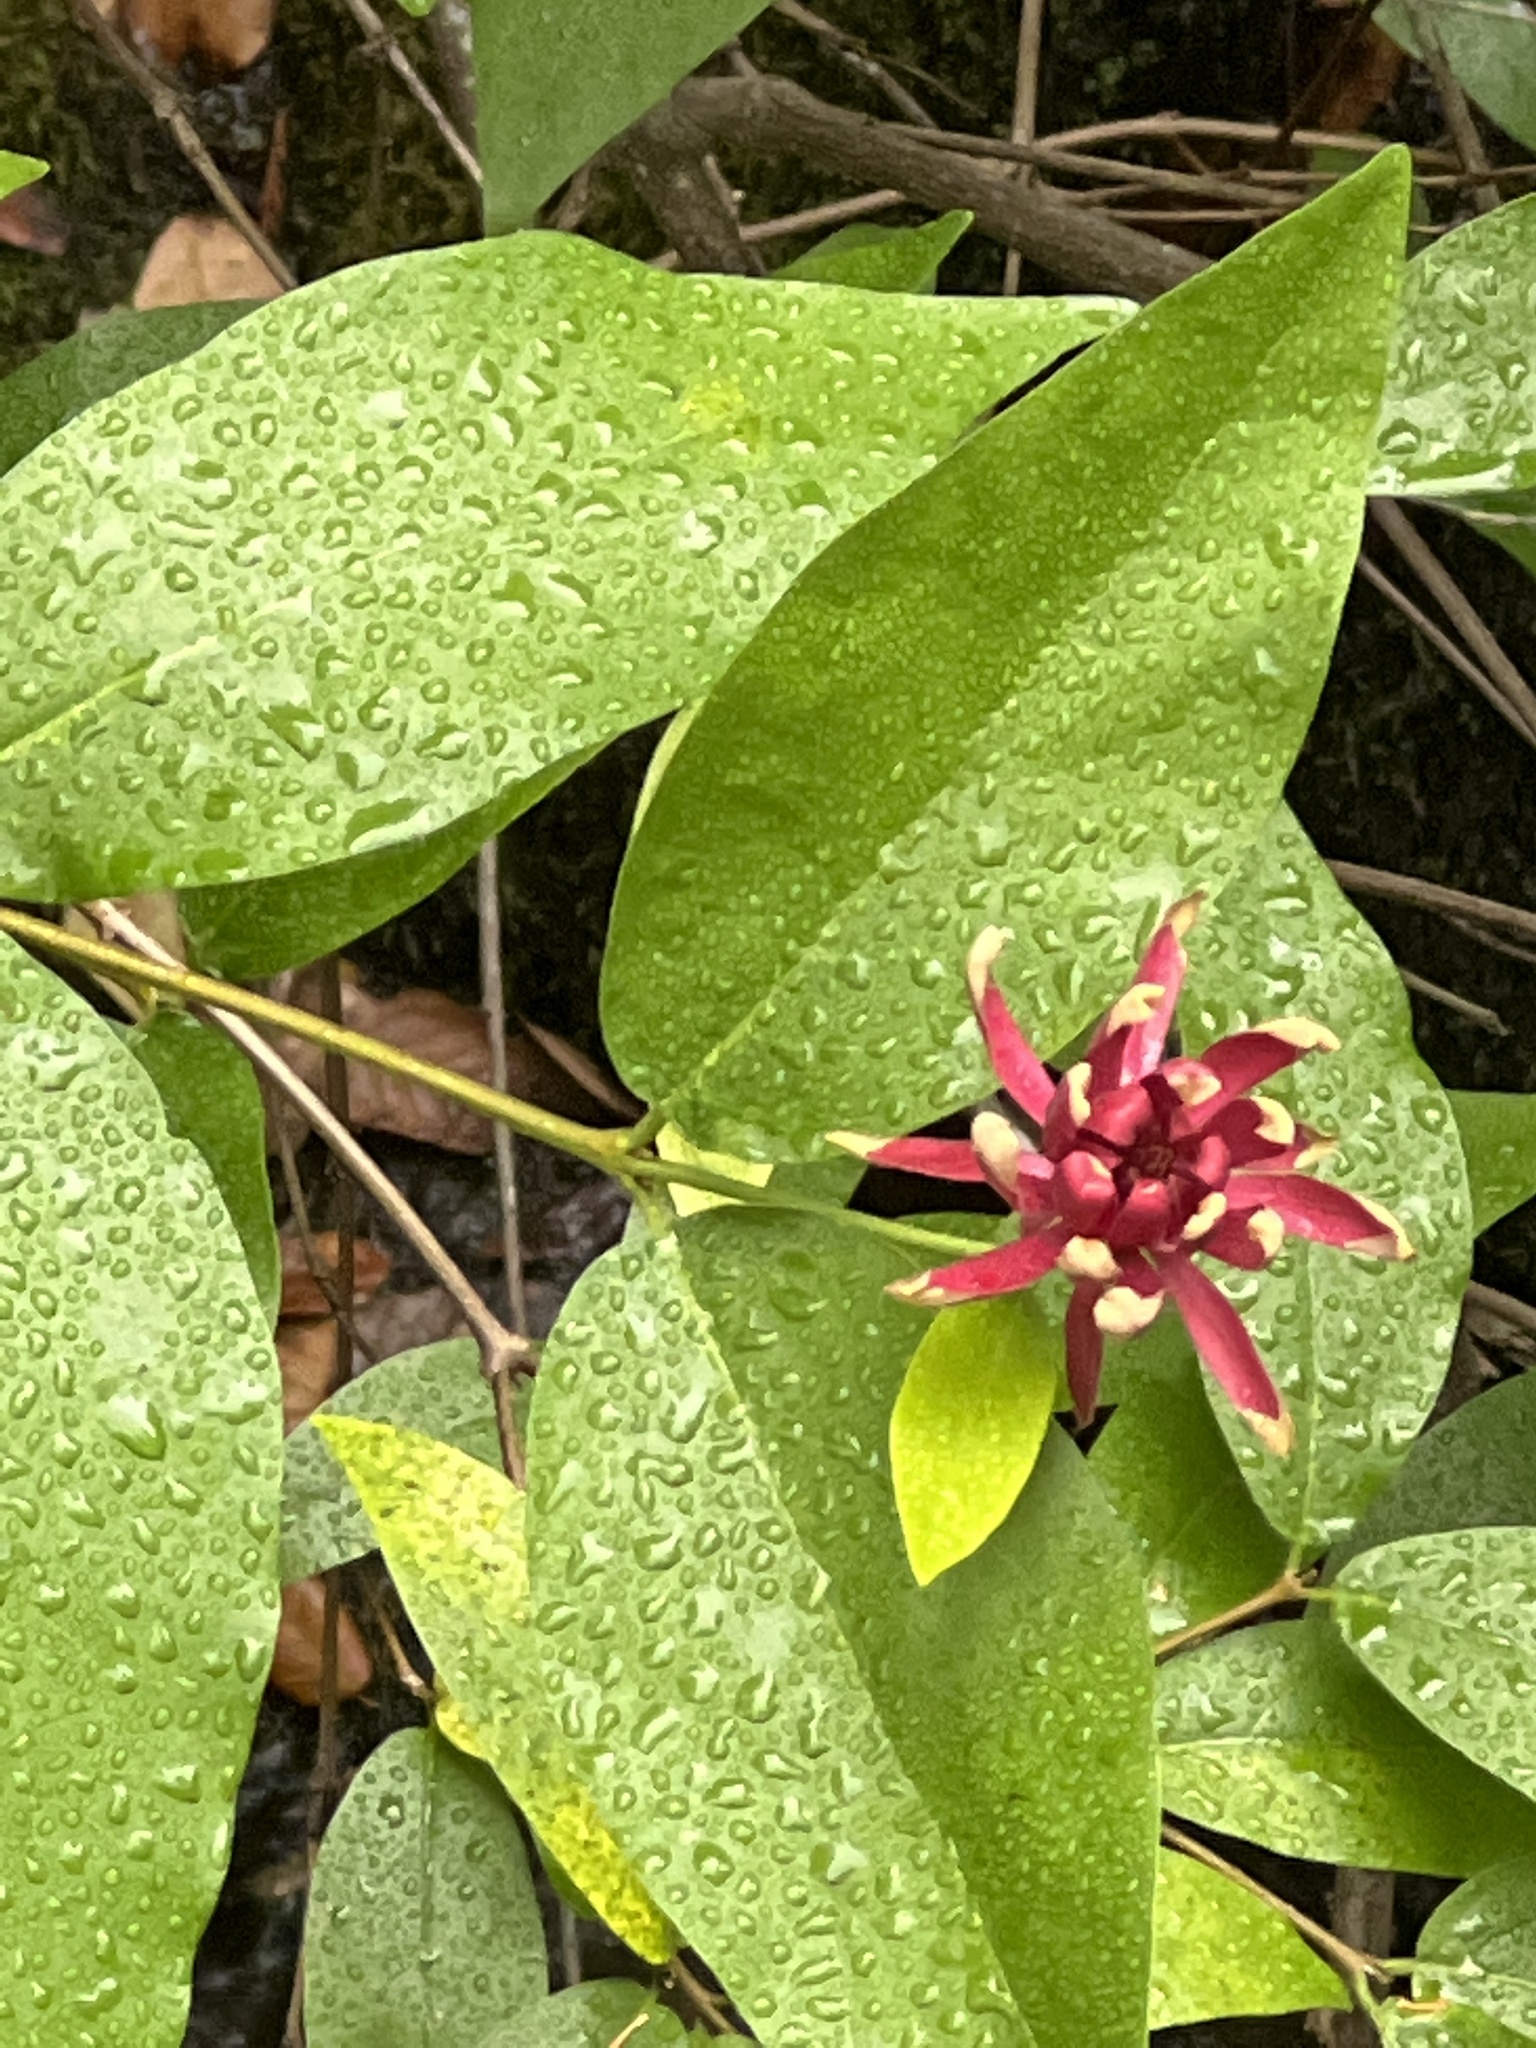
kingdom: Plantae
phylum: Tracheophyta
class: Magnoliopsida
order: Laurales
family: Calycanthaceae
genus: Calycanthus
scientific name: Calycanthus occidentalis
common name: California spicebush
